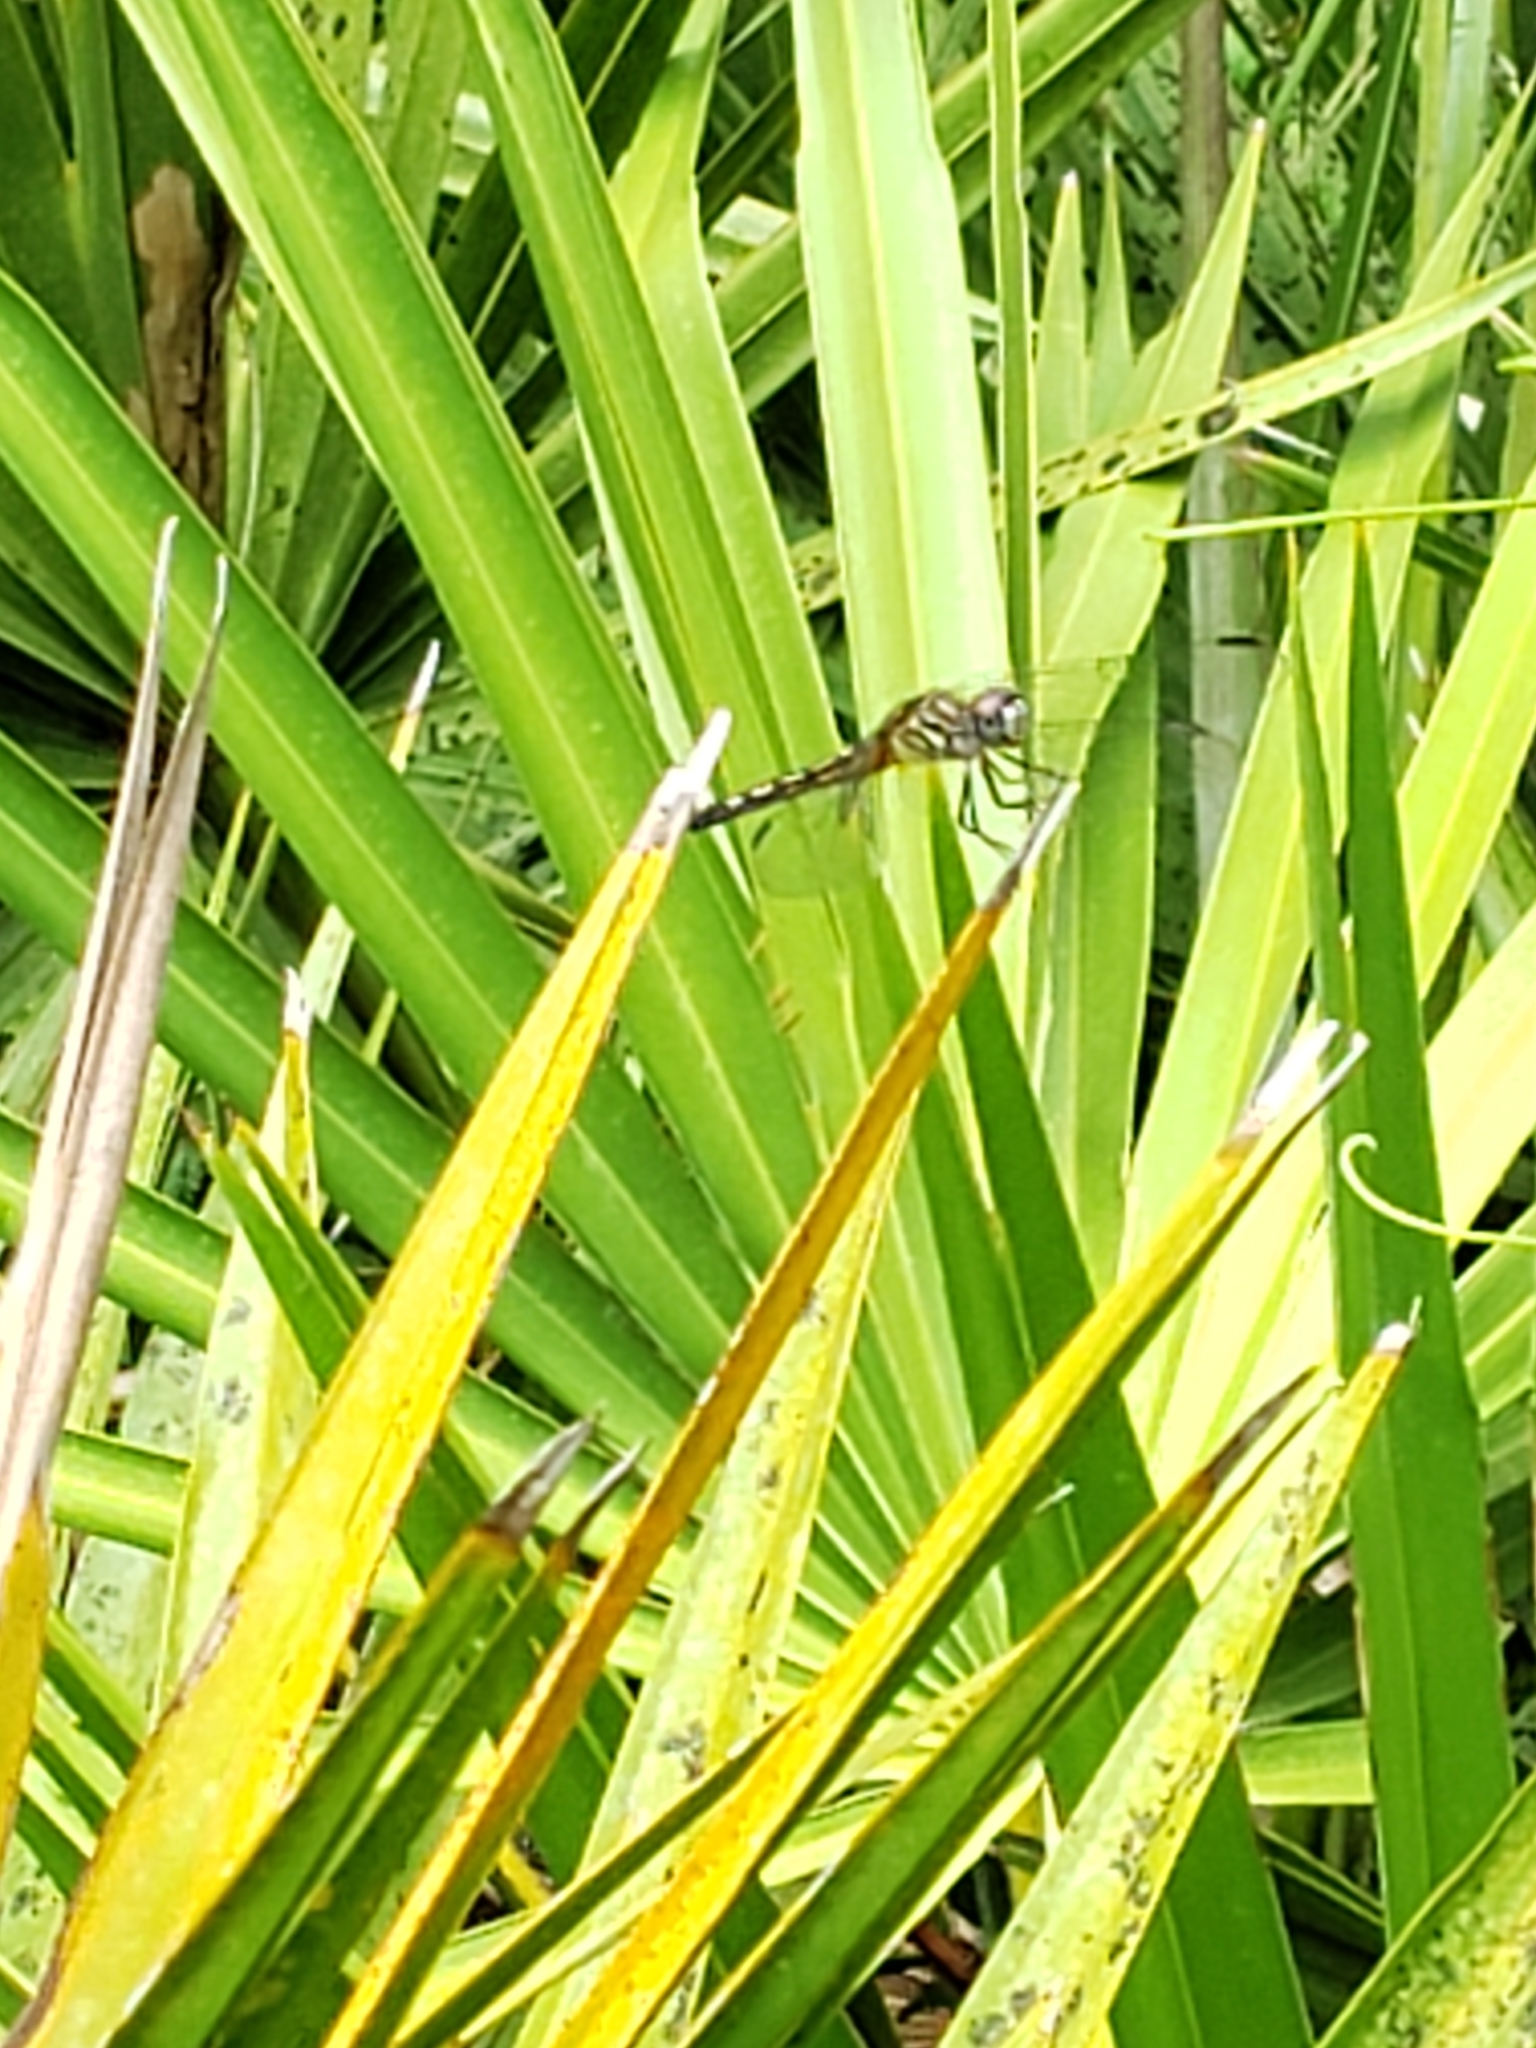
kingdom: Animalia
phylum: Arthropoda
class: Insecta
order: Odonata
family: Libellulidae
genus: Pachydiplax
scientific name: Pachydiplax longipennis
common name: Blue dasher
